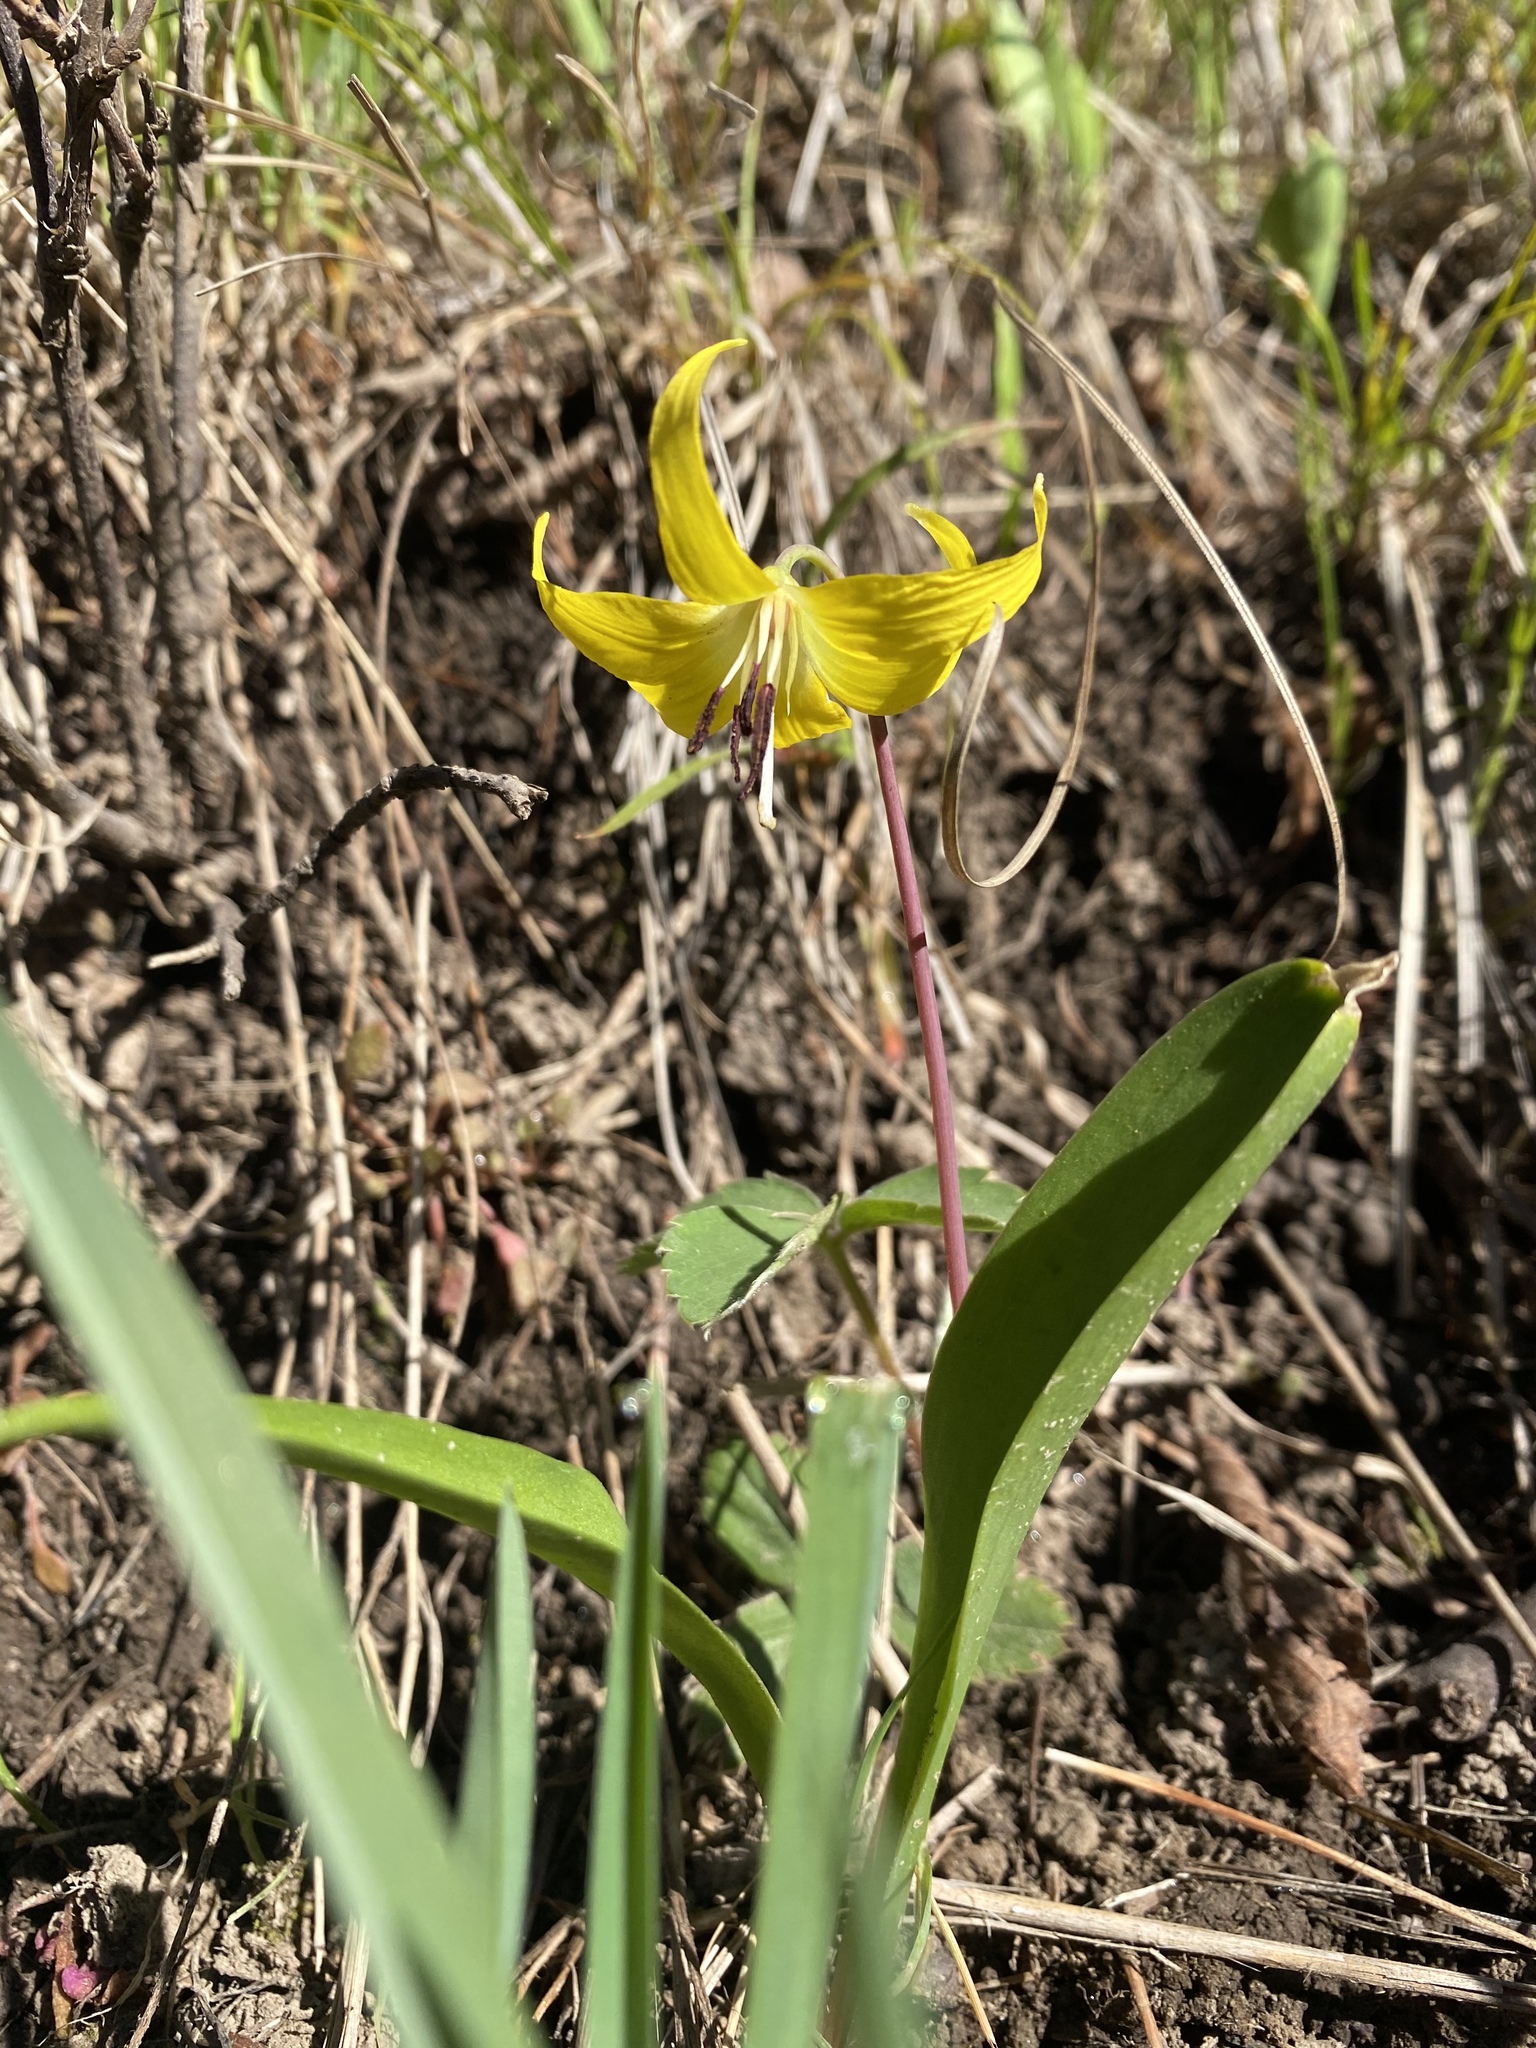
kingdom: Plantae
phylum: Tracheophyta
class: Liliopsida
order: Liliales
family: Liliaceae
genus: Erythronium
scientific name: Erythronium grandiflorum
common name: Avalanche-lily
